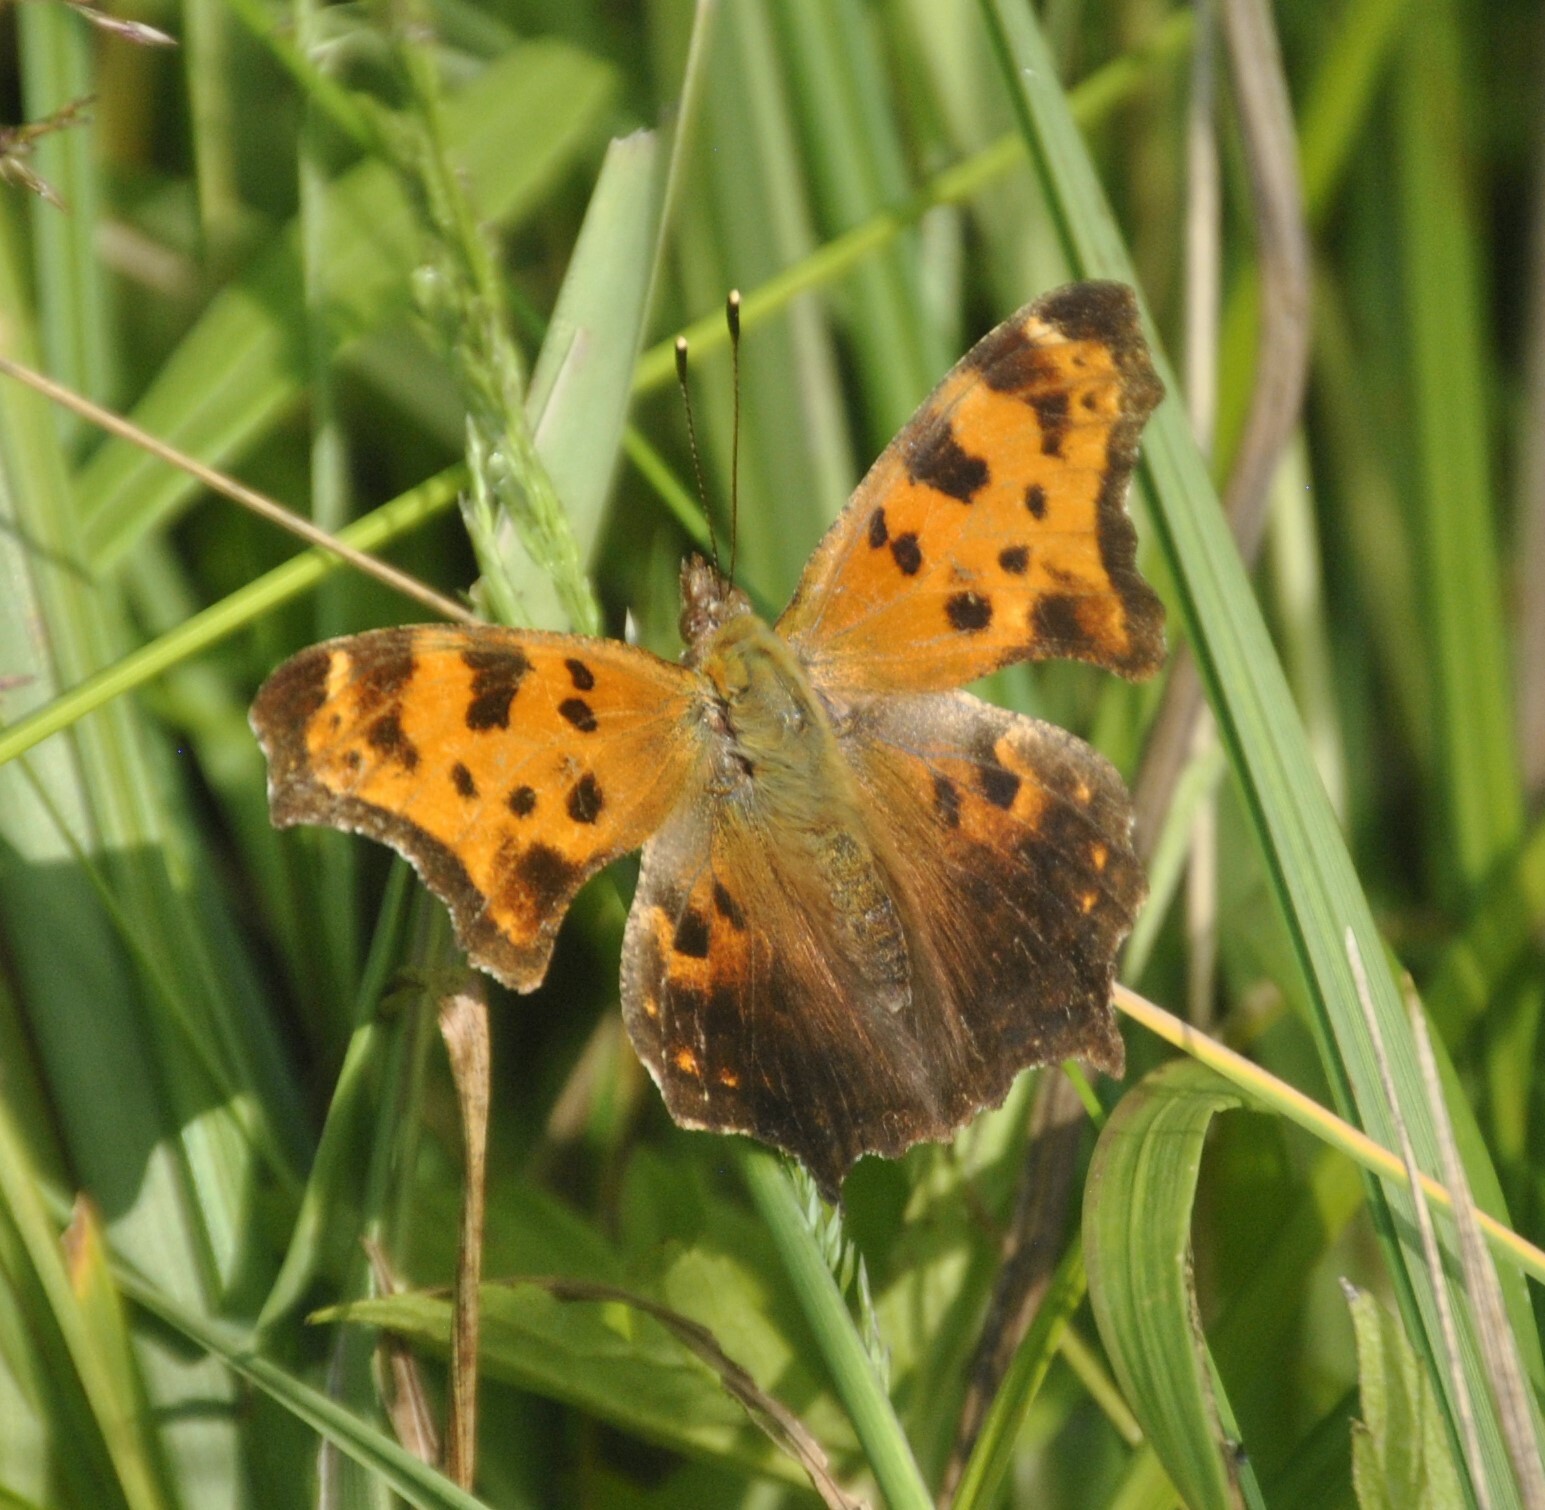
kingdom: Animalia
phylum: Arthropoda
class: Insecta
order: Lepidoptera
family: Nymphalidae
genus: Polygonia
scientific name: Polygonia comma
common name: Eastern comma
